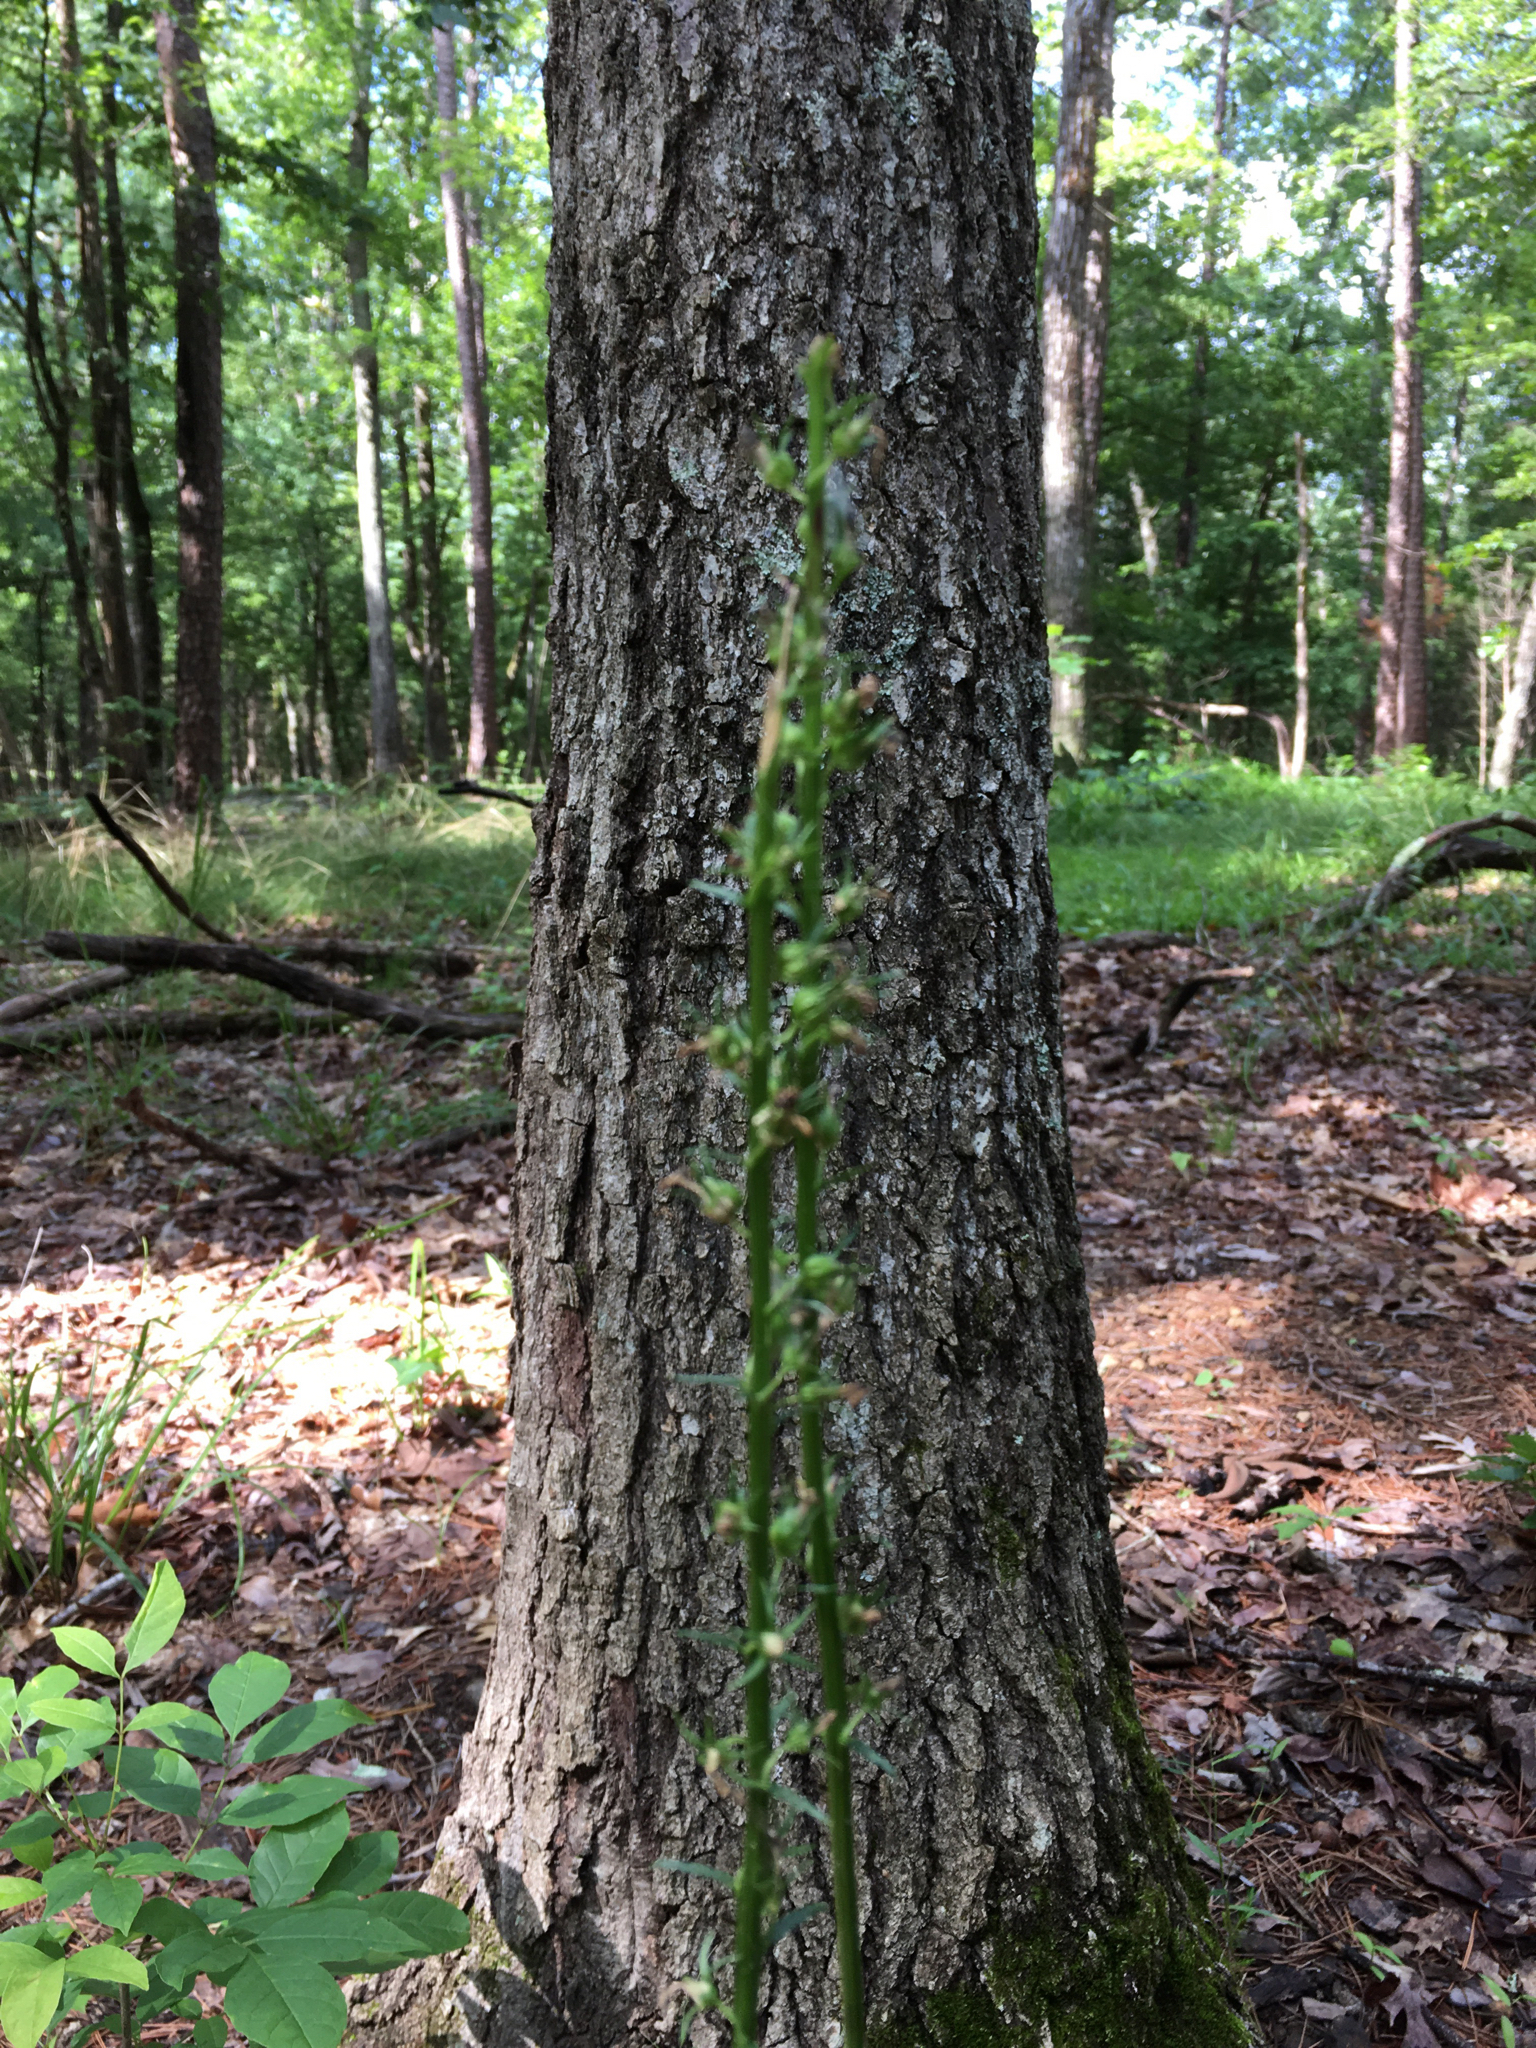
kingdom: Plantae
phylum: Tracheophyta
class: Liliopsida
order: Liliales
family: Melanthiaceae
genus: Chamaelirium
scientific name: Chamaelirium luteum
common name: Fairy-wand
